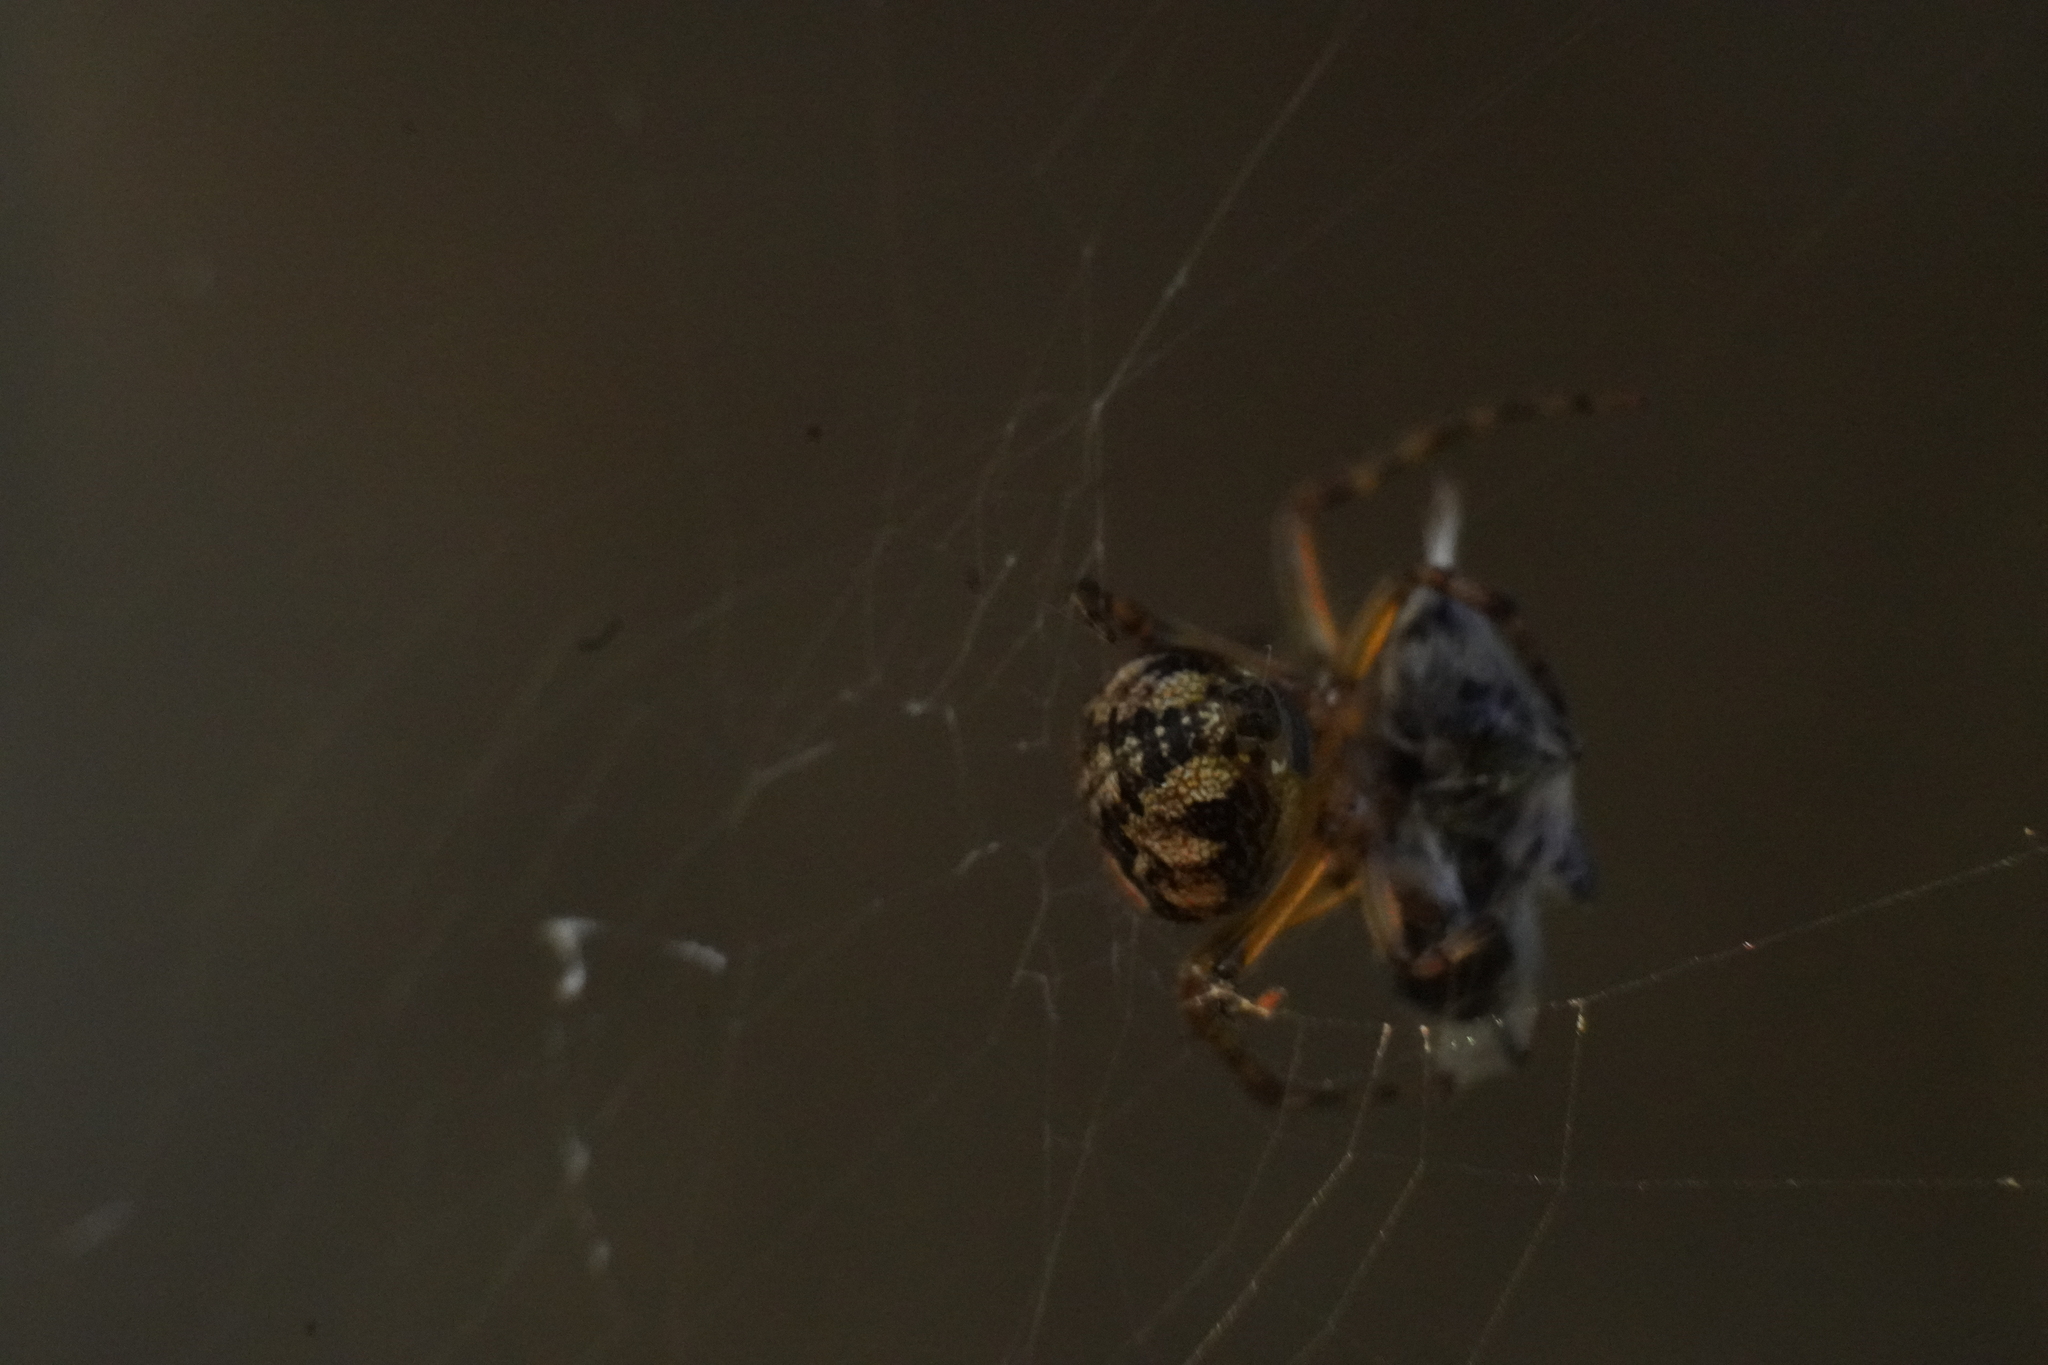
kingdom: Animalia
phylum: Arthropoda
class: Arachnida
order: Araneae
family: Araneidae
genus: Araneus
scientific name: Araneus pegnia
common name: Orb weavers
